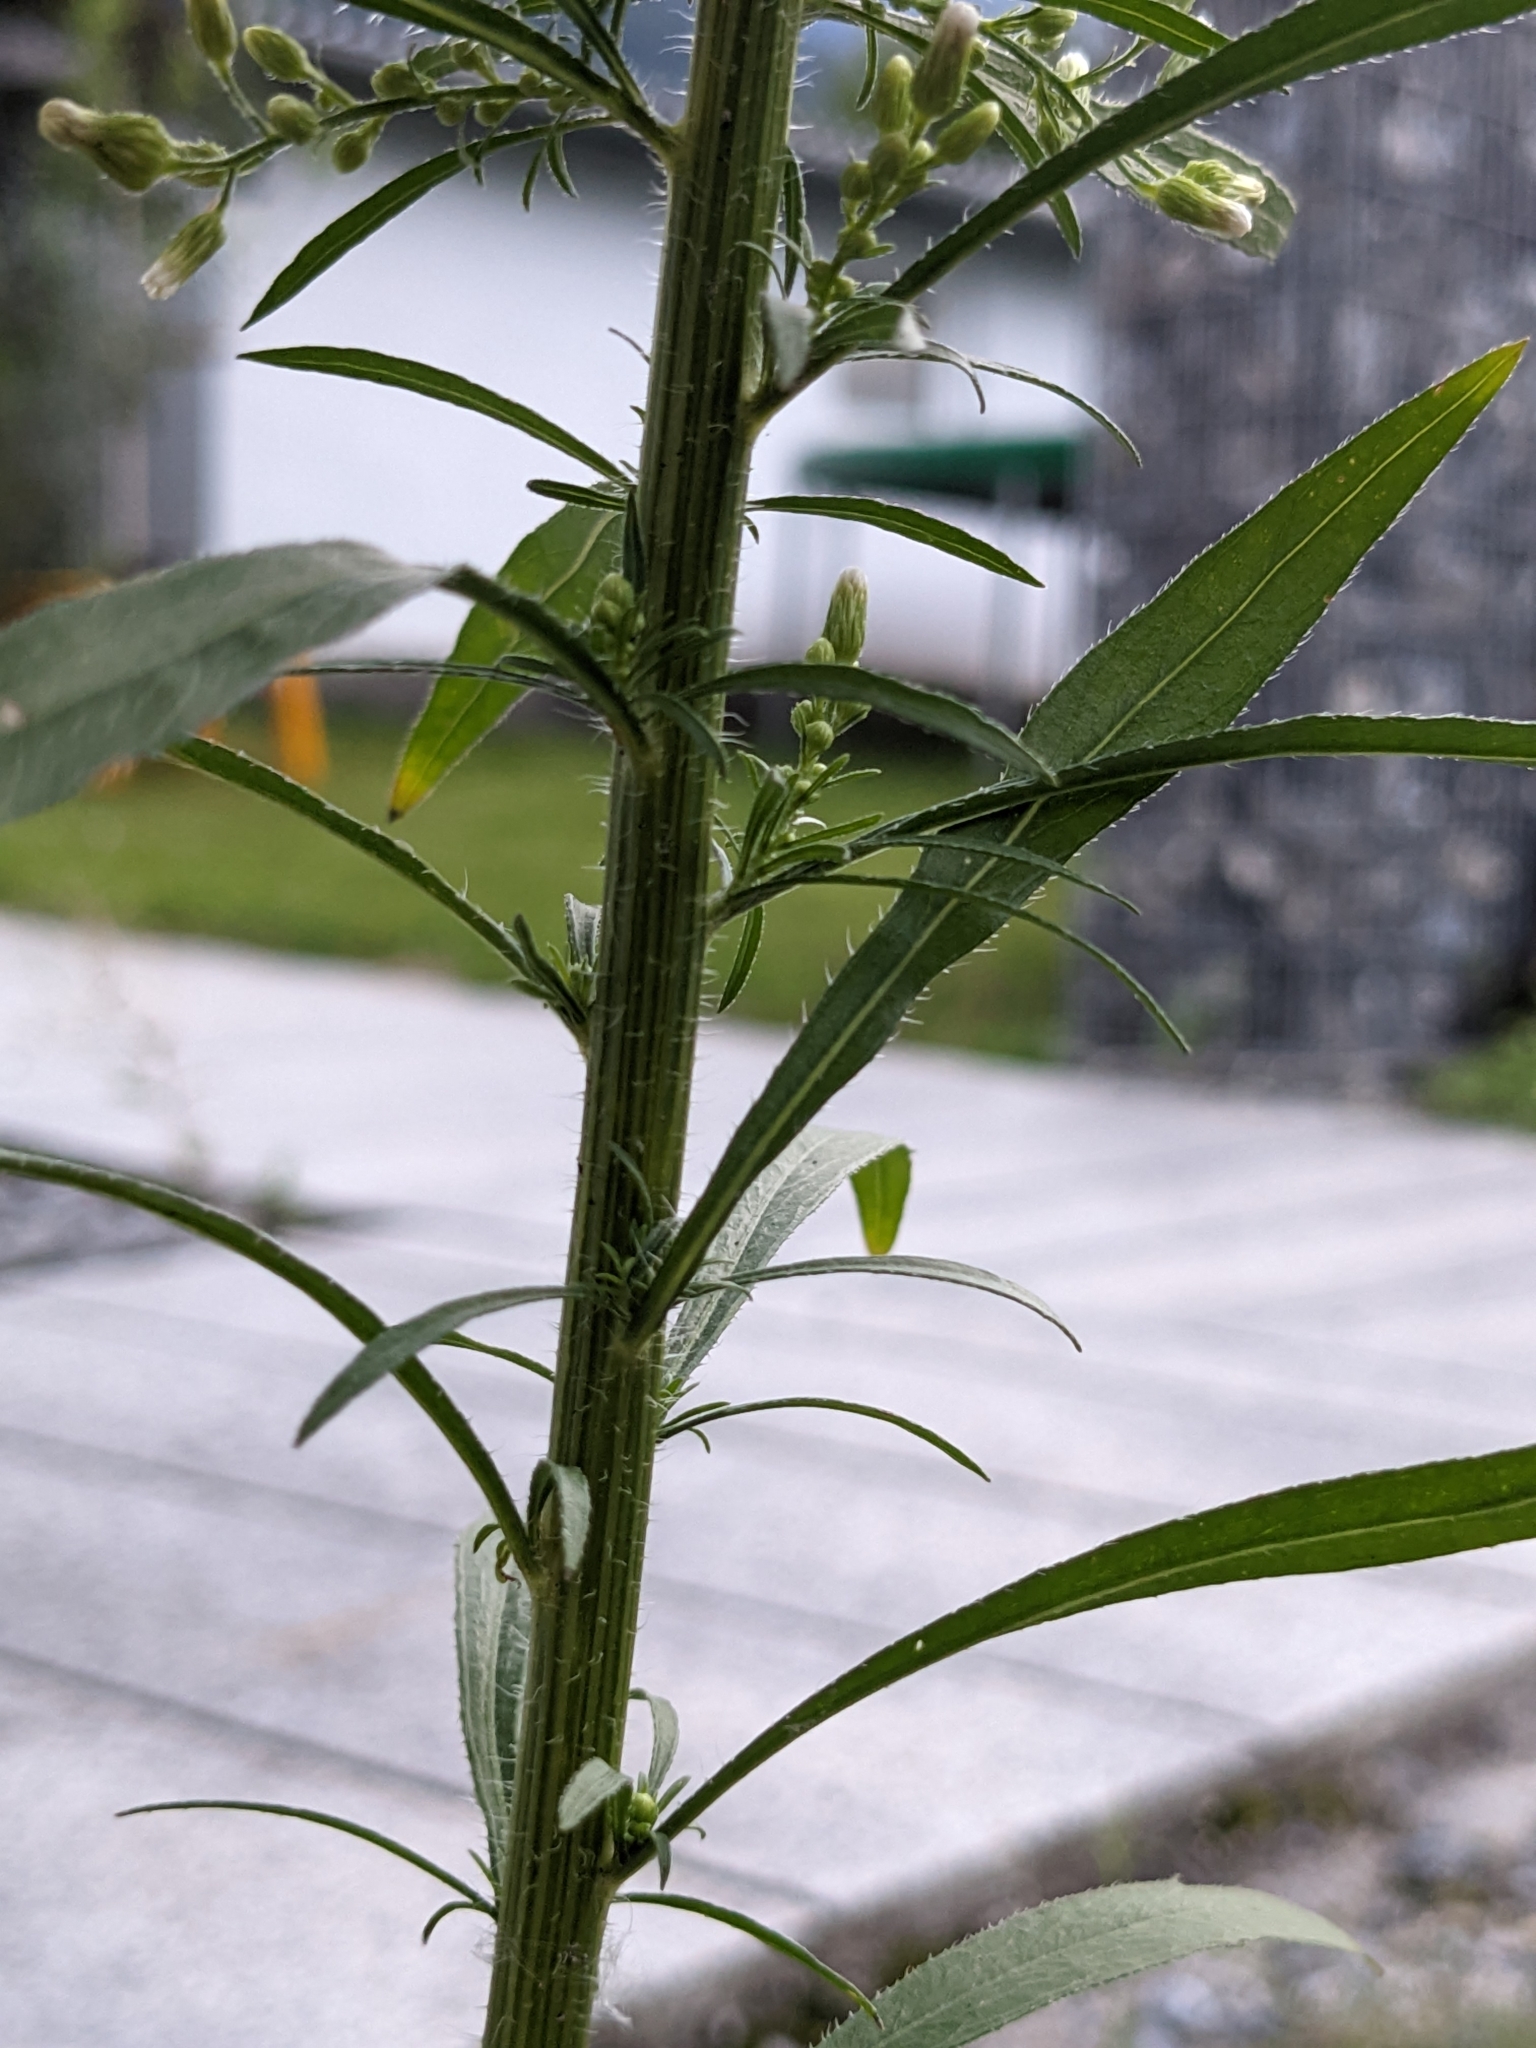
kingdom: Plantae
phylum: Tracheophyta
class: Magnoliopsida
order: Asterales
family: Asteraceae
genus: Erigeron
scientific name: Erigeron canadensis
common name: Canadian fleabane
